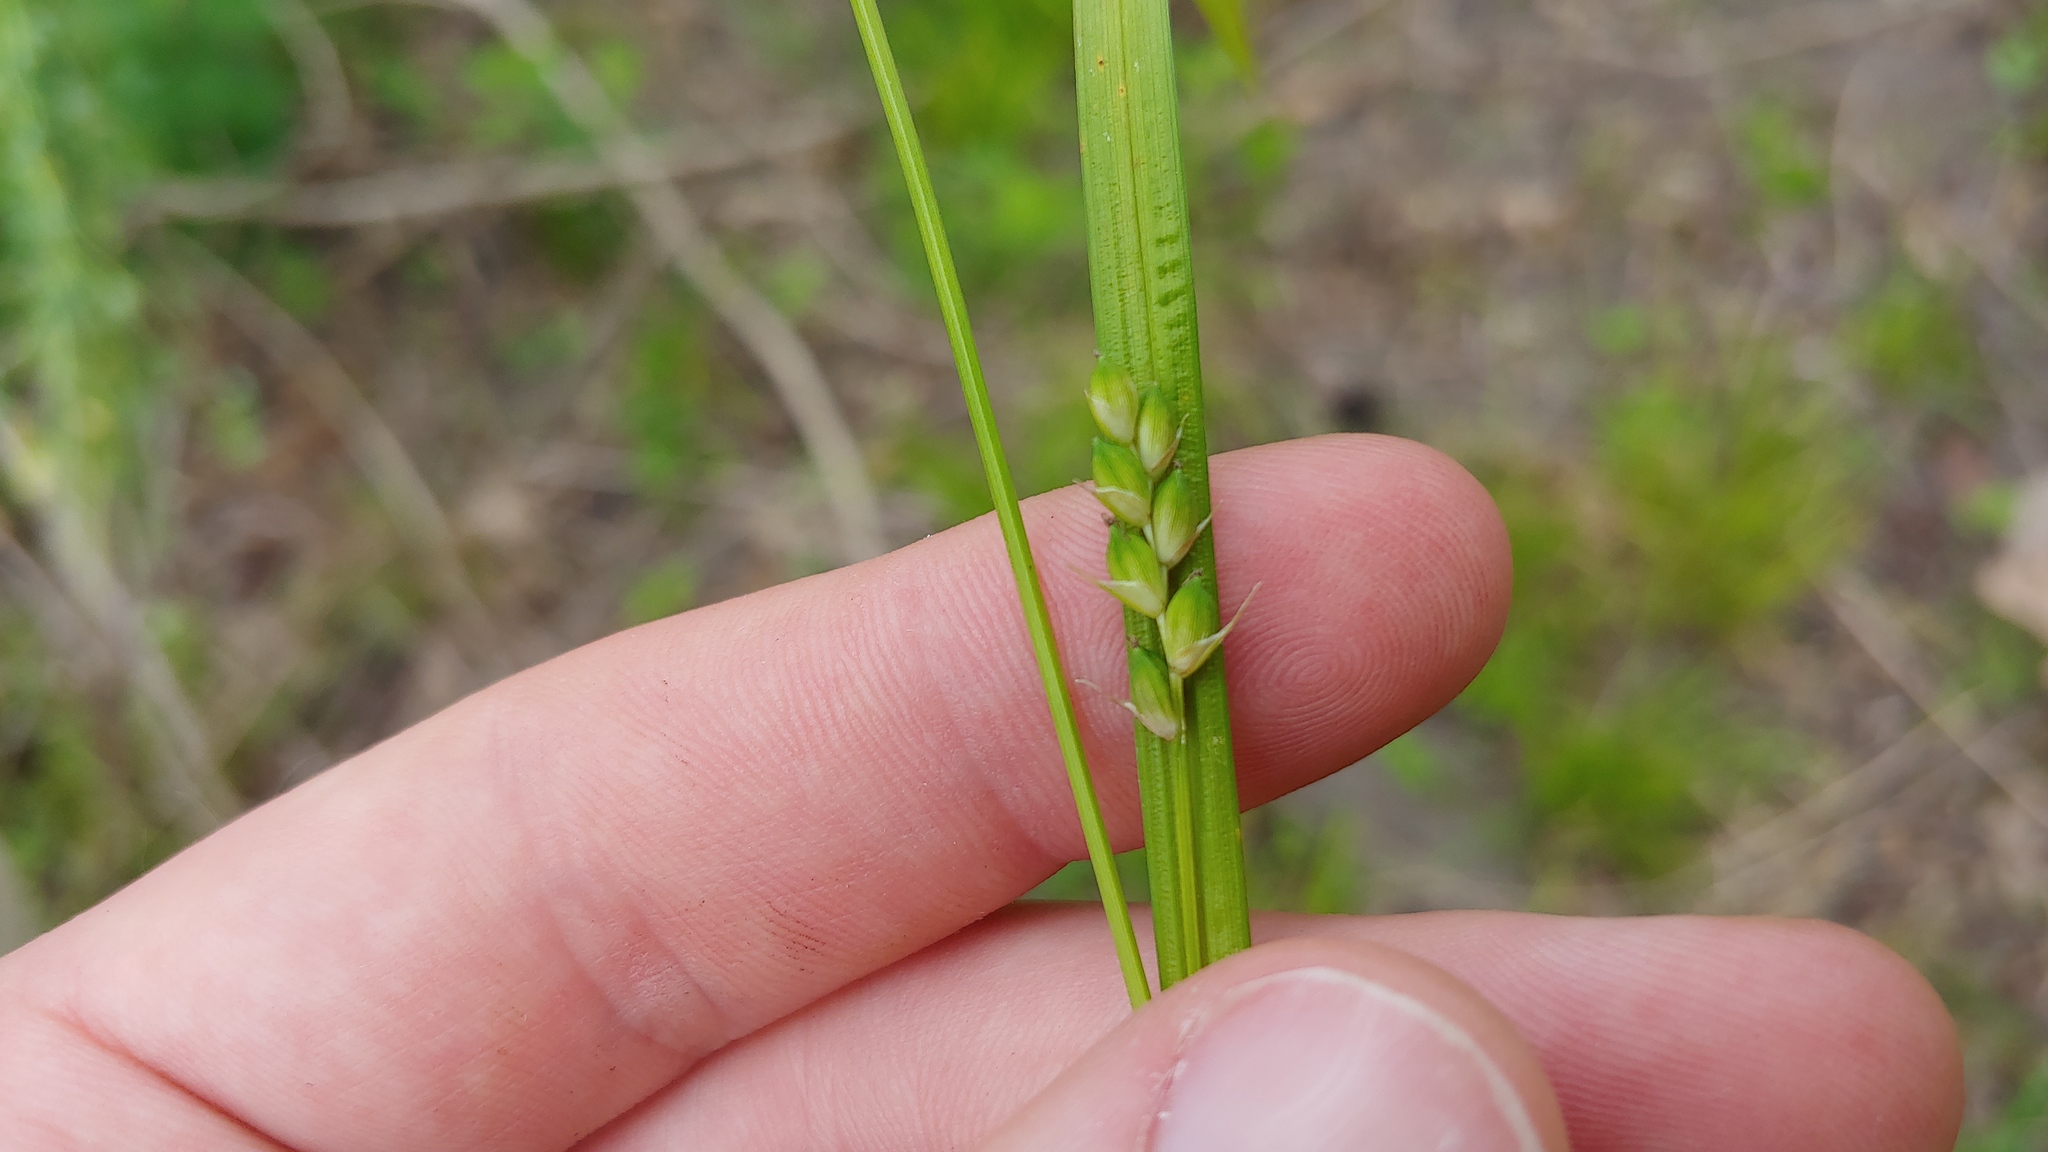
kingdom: Plantae
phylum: Tracheophyta
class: Liliopsida
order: Poales
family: Cyperaceae
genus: Carex
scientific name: Carex oligocarpa
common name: Eastern few-fruited sedge
